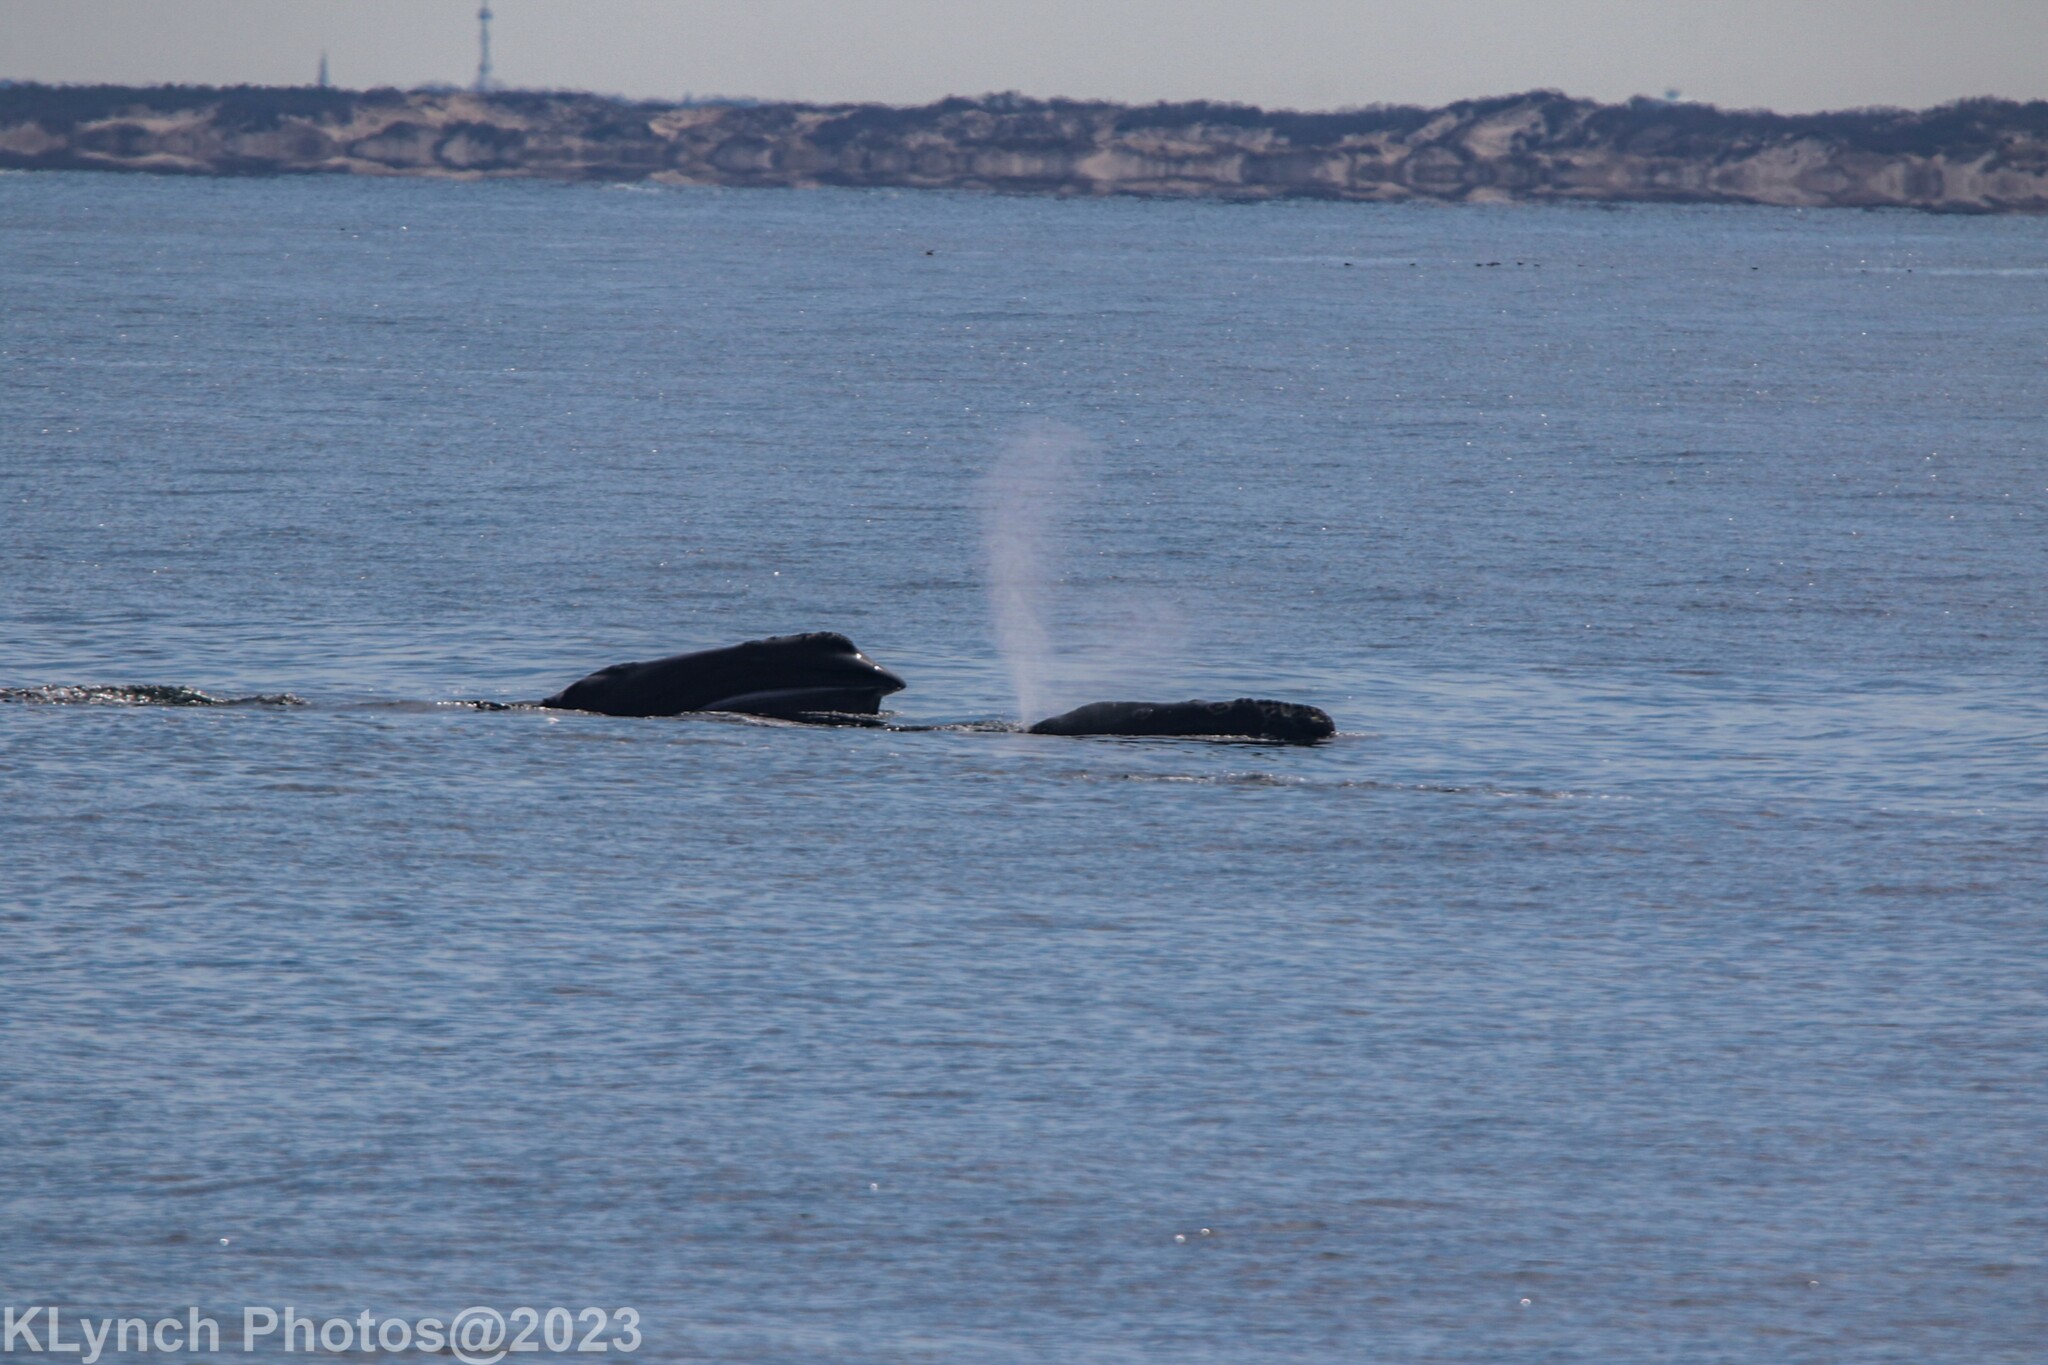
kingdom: Animalia
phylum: Chordata
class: Mammalia
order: Cetacea
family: Balaenidae
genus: Eubalaena
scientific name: Eubalaena glacialis
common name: North atlantic right whale
